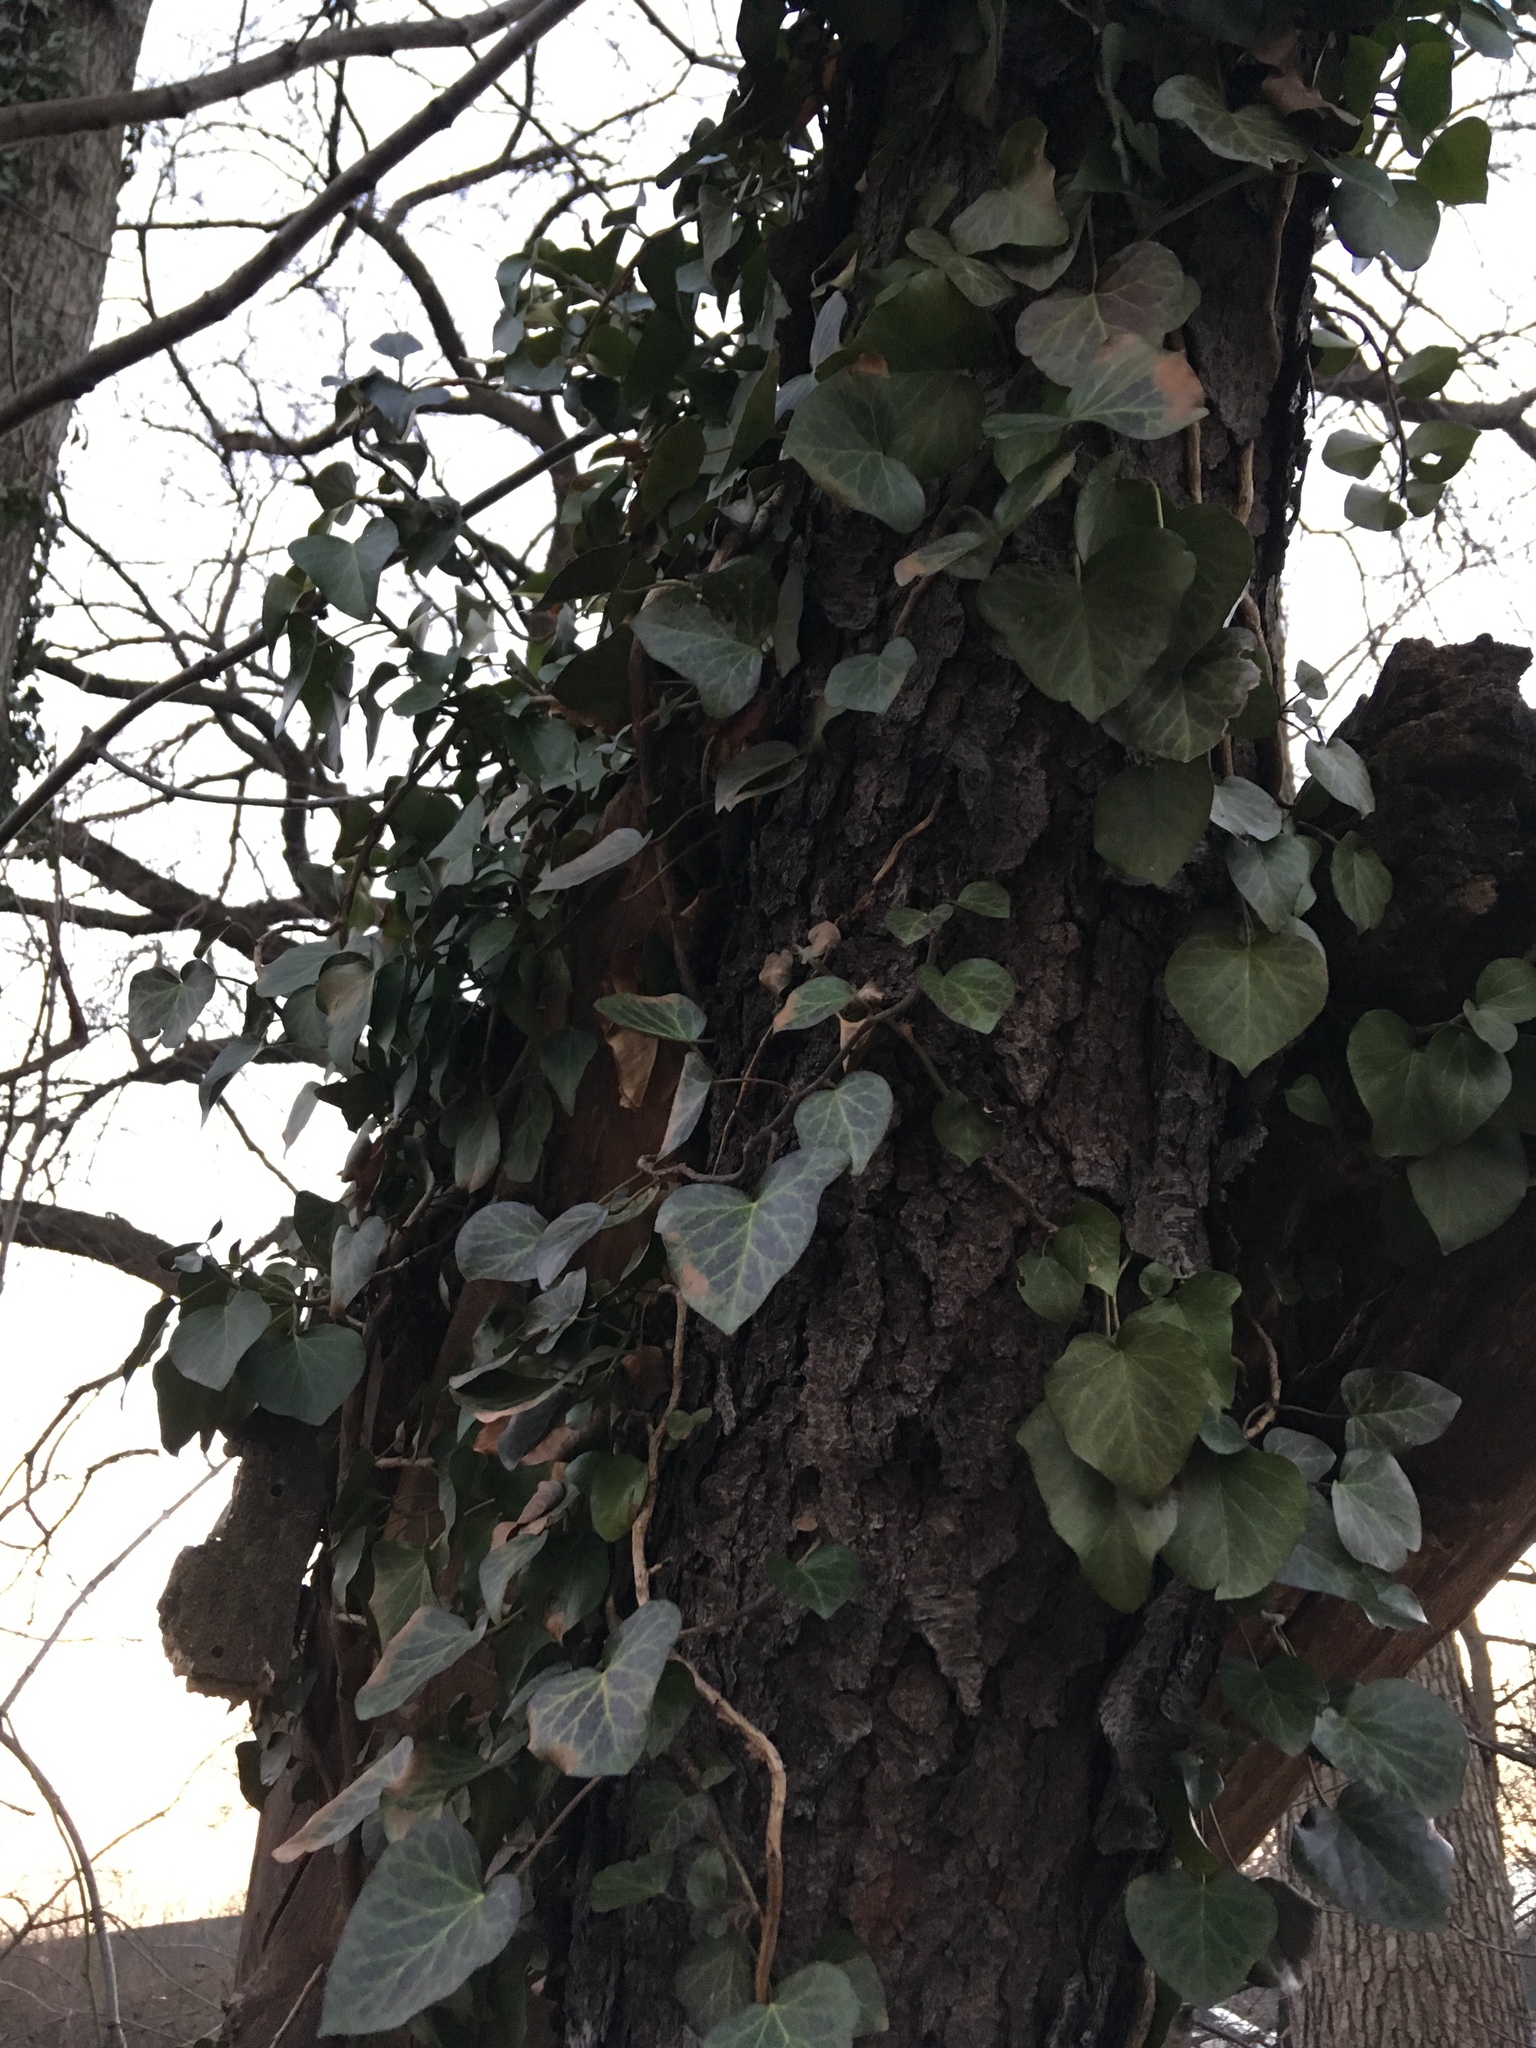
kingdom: Plantae
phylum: Tracheophyta
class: Magnoliopsida
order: Apiales
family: Araliaceae
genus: Hedera
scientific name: Hedera helix
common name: Ivy
